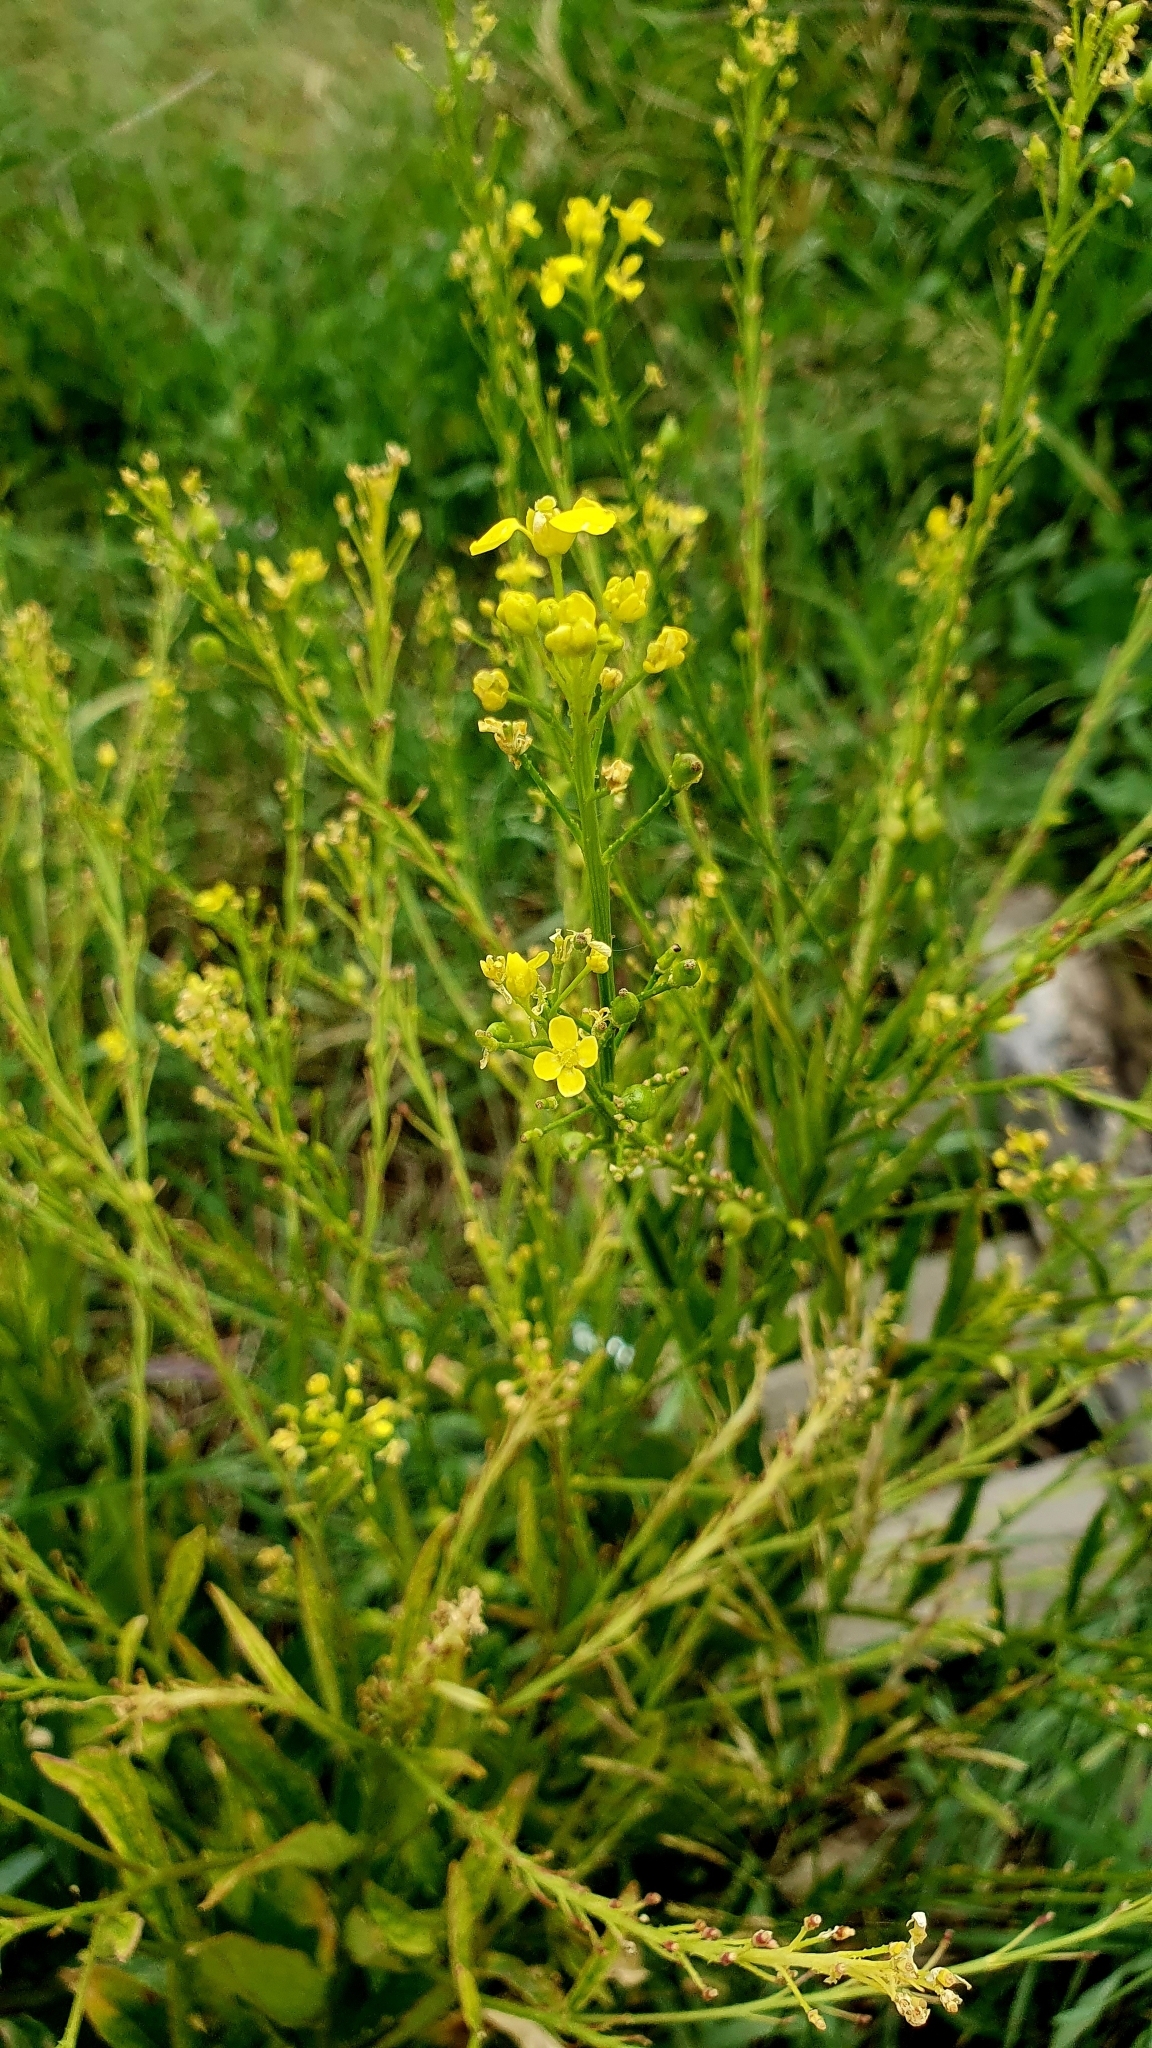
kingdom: Plantae
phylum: Tracheophyta
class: Magnoliopsida
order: Brassicales
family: Brassicaceae
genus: Bunias
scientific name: Bunias orientalis
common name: Warty-cabbage
